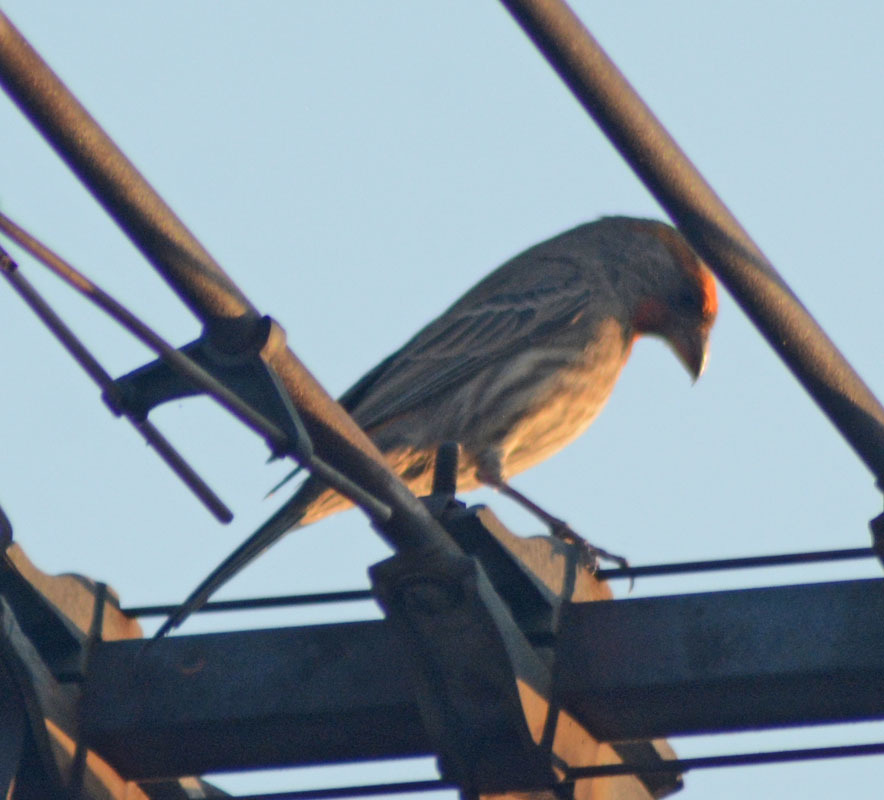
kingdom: Animalia
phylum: Chordata
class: Aves
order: Passeriformes
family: Fringillidae
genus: Haemorhous
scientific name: Haemorhous mexicanus
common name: House finch
